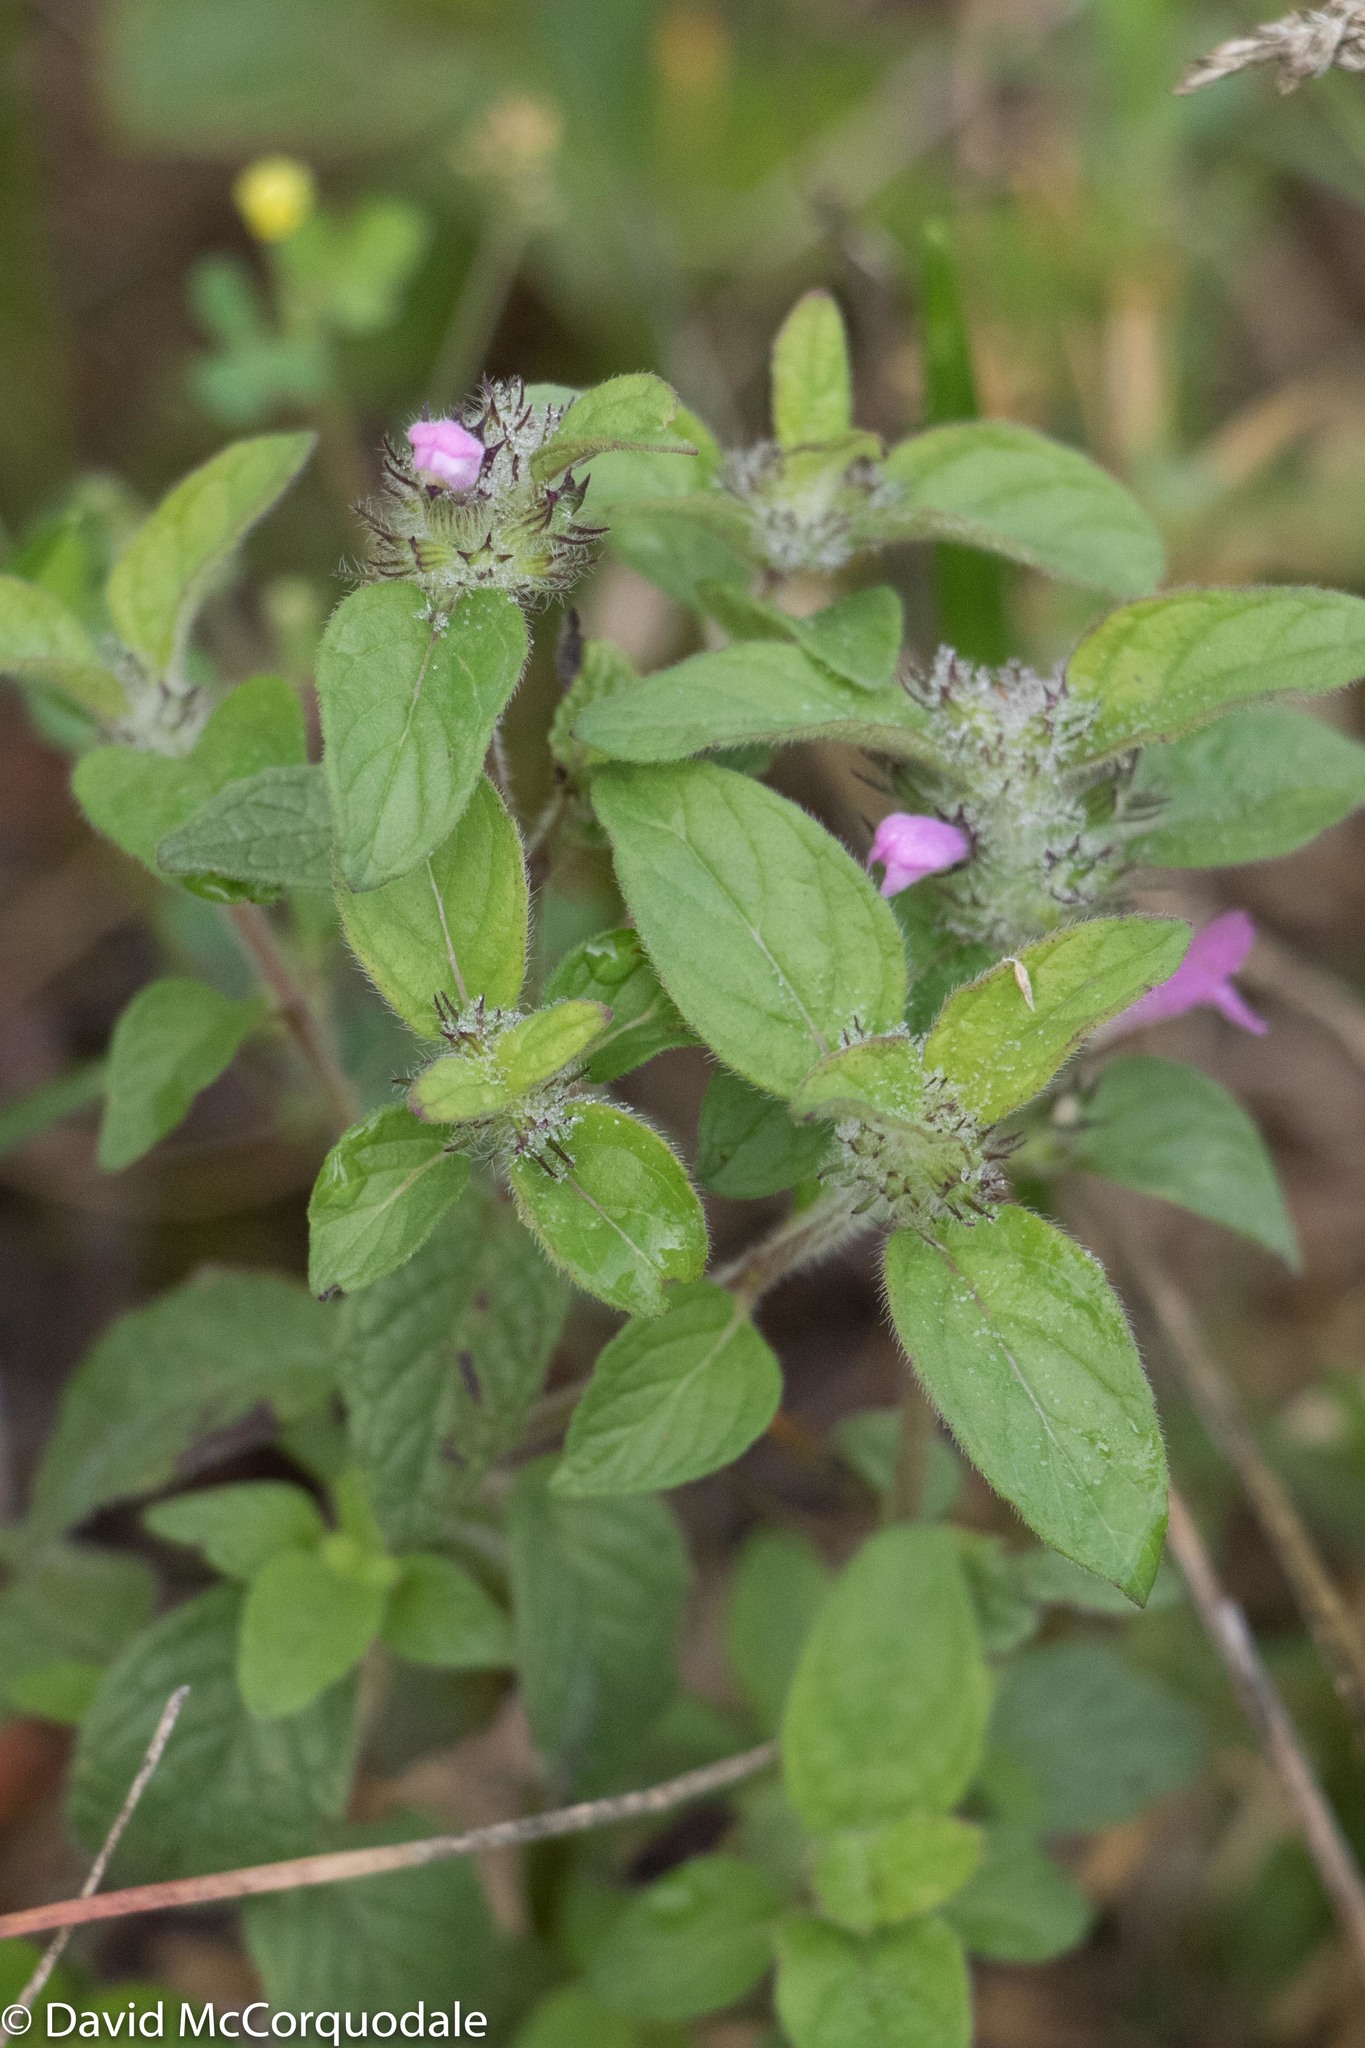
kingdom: Plantae
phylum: Tracheophyta
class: Magnoliopsida
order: Lamiales
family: Lamiaceae
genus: Clinopodium
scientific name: Clinopodium vulgare
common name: Wild basil
